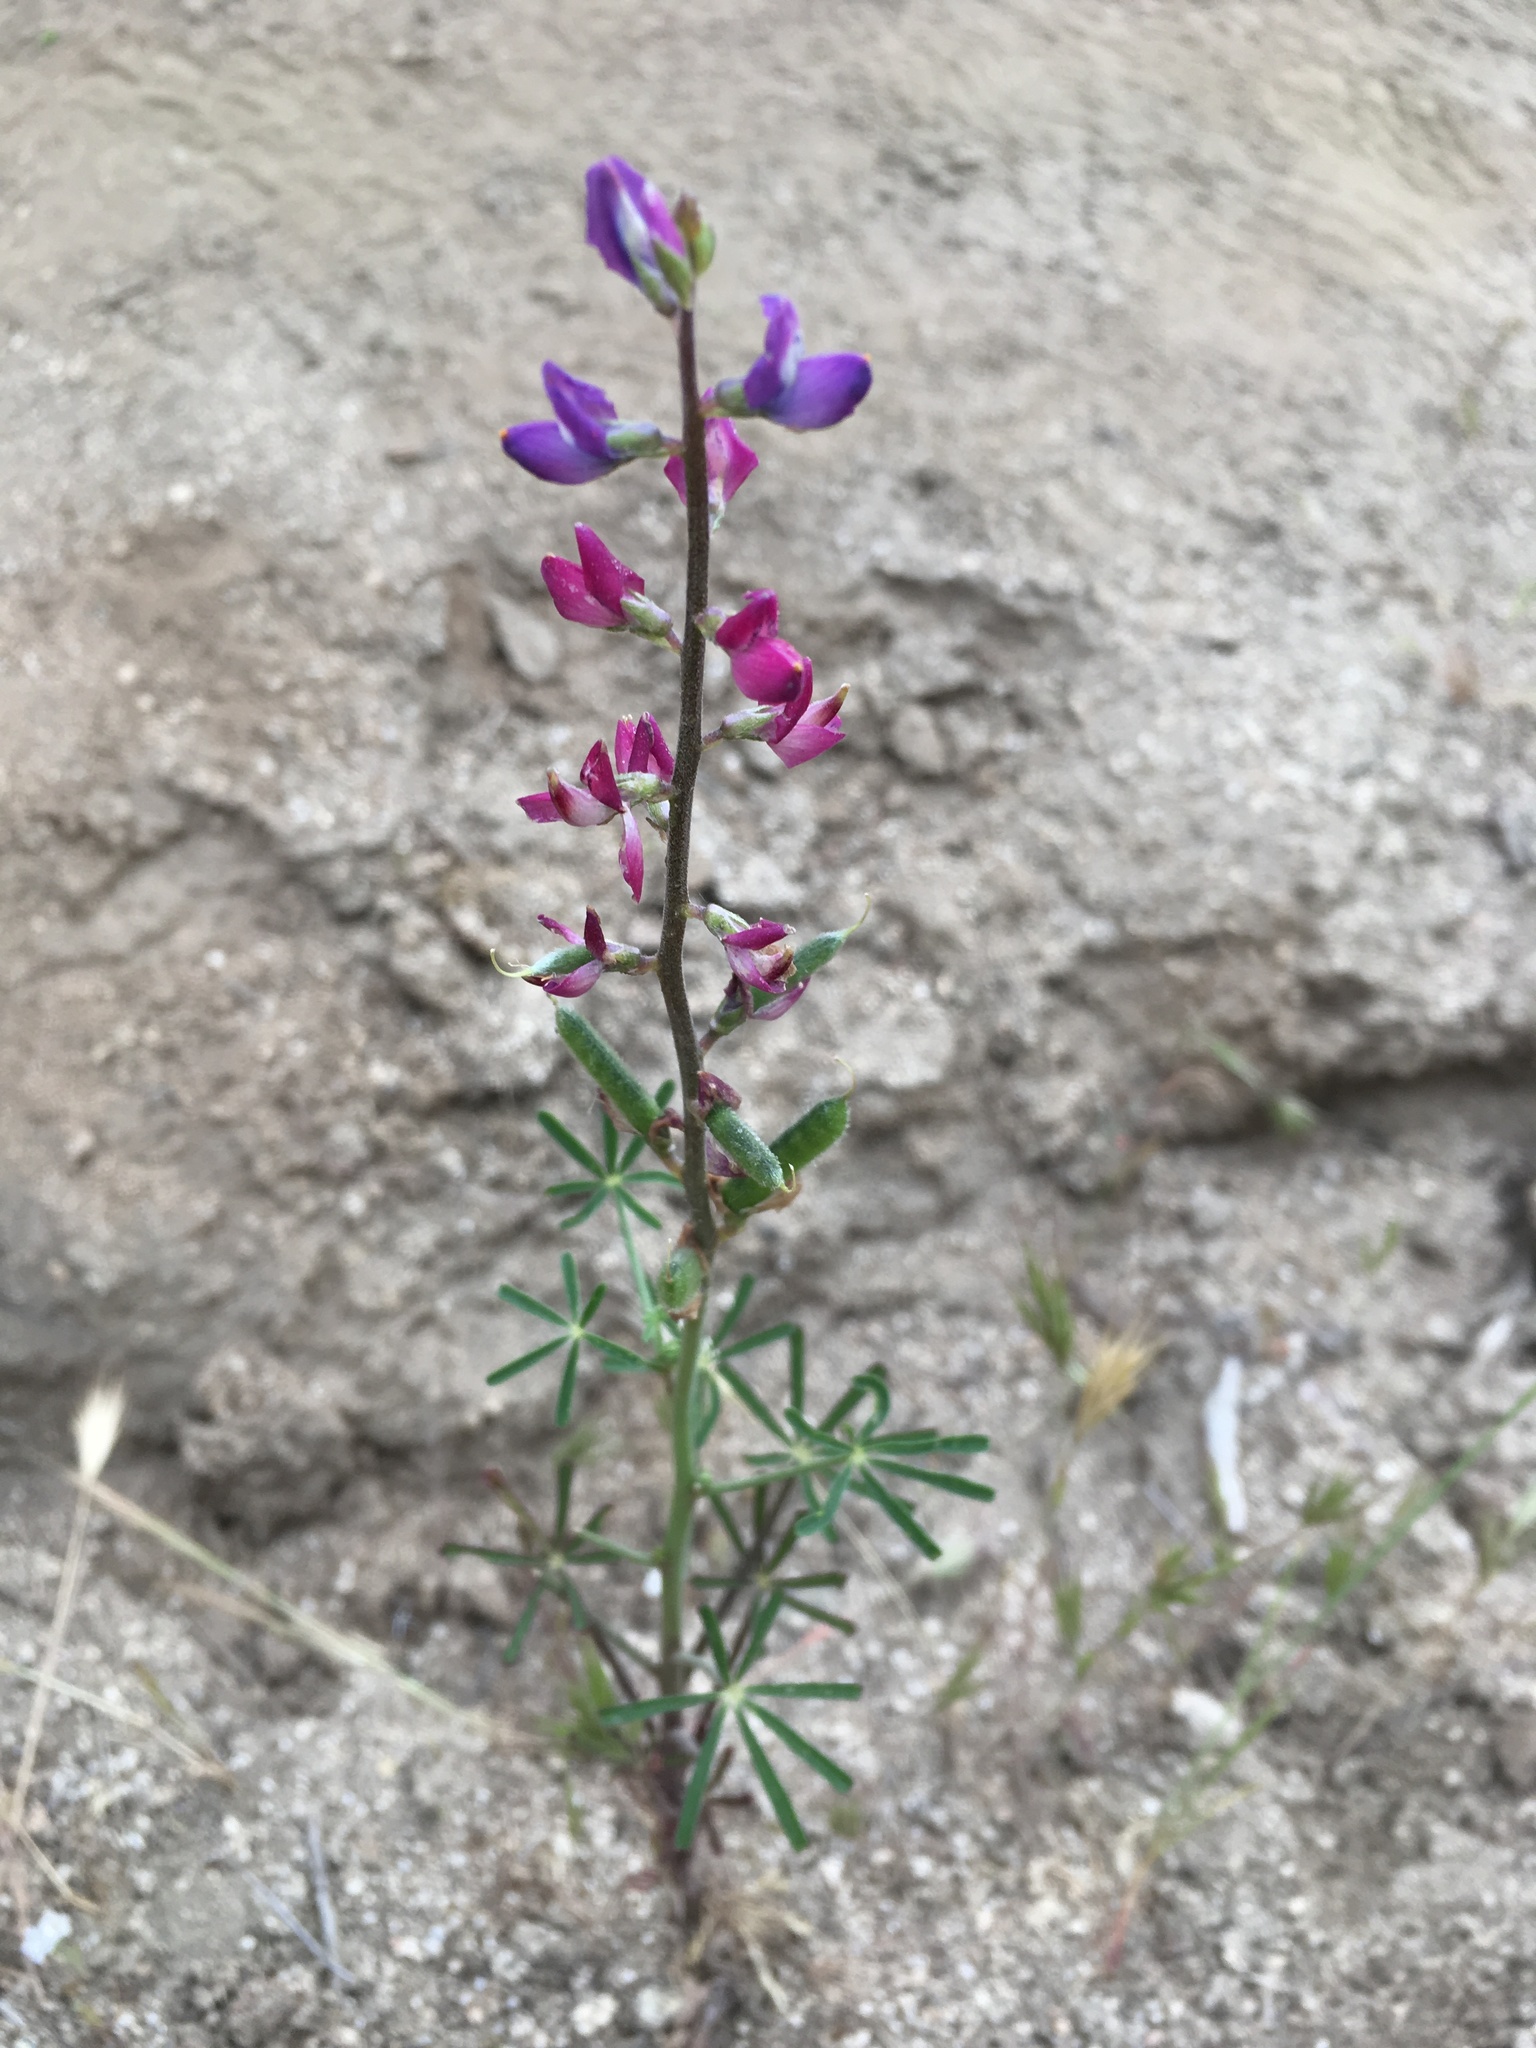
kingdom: Plantae
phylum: Tracheophyta
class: Magnoliopsida
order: Fabales
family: Fabaceae
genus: Lupinus
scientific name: Lupinus truncatus
